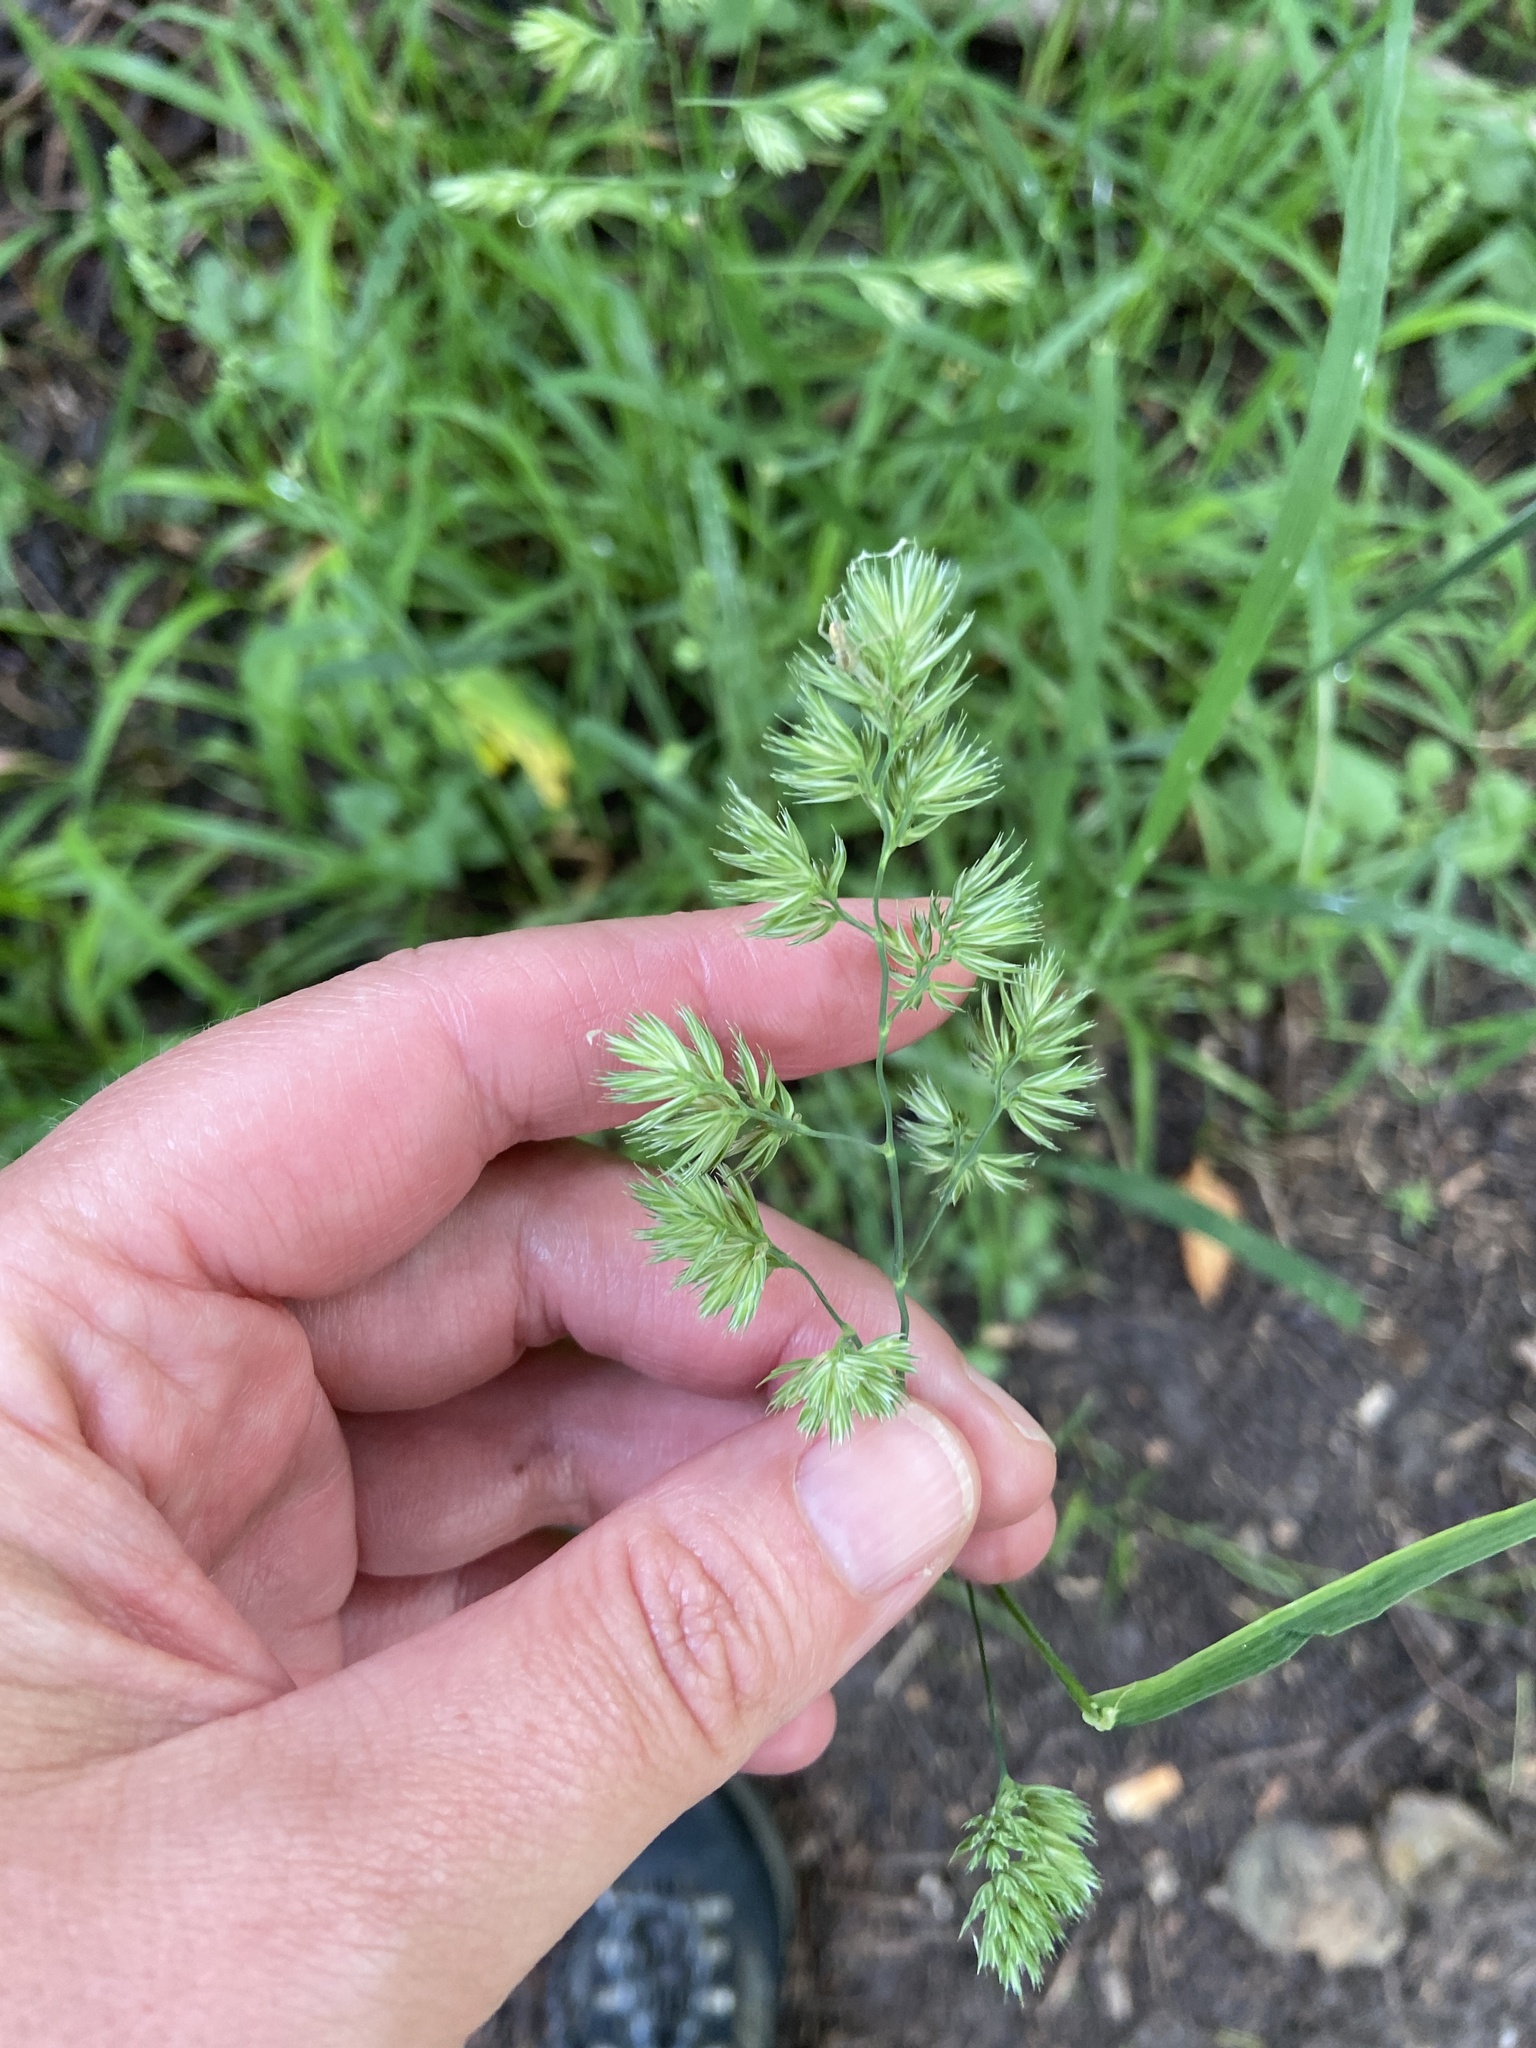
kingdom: Plantae
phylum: Tracheophyta
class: Liliopsida
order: Poales
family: Poaceae
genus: Dactylis
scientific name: Dactylis glomerata
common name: Orchardgrass
